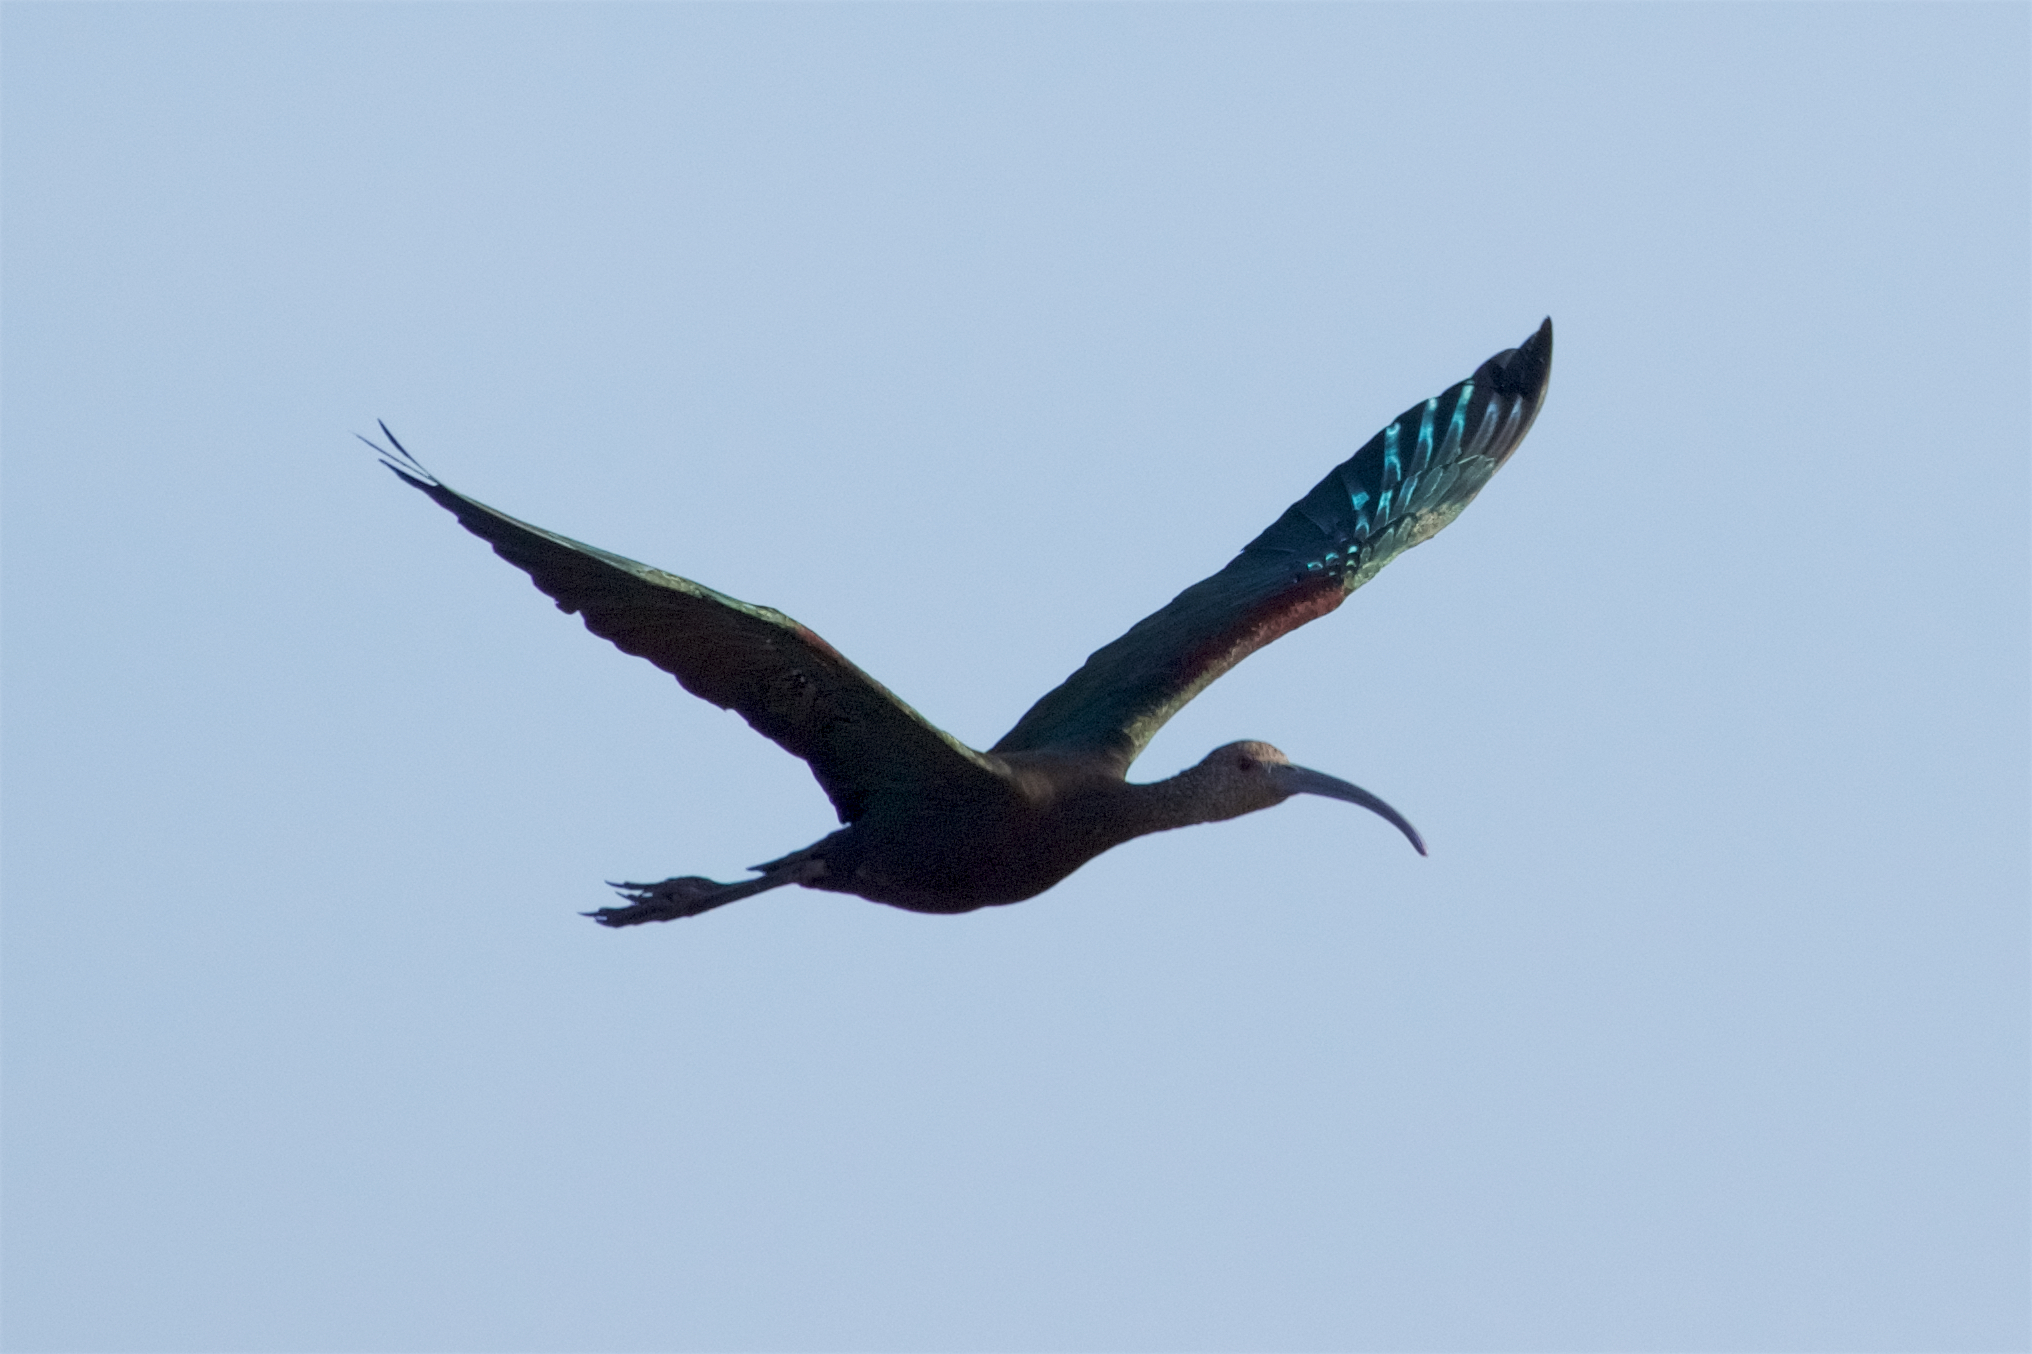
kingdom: Animalia
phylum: Chordata
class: Aves
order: Pelecaniformes
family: Threskiornithidae
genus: Plegadis
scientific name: Plegadis chihi
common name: White-faced ibis
